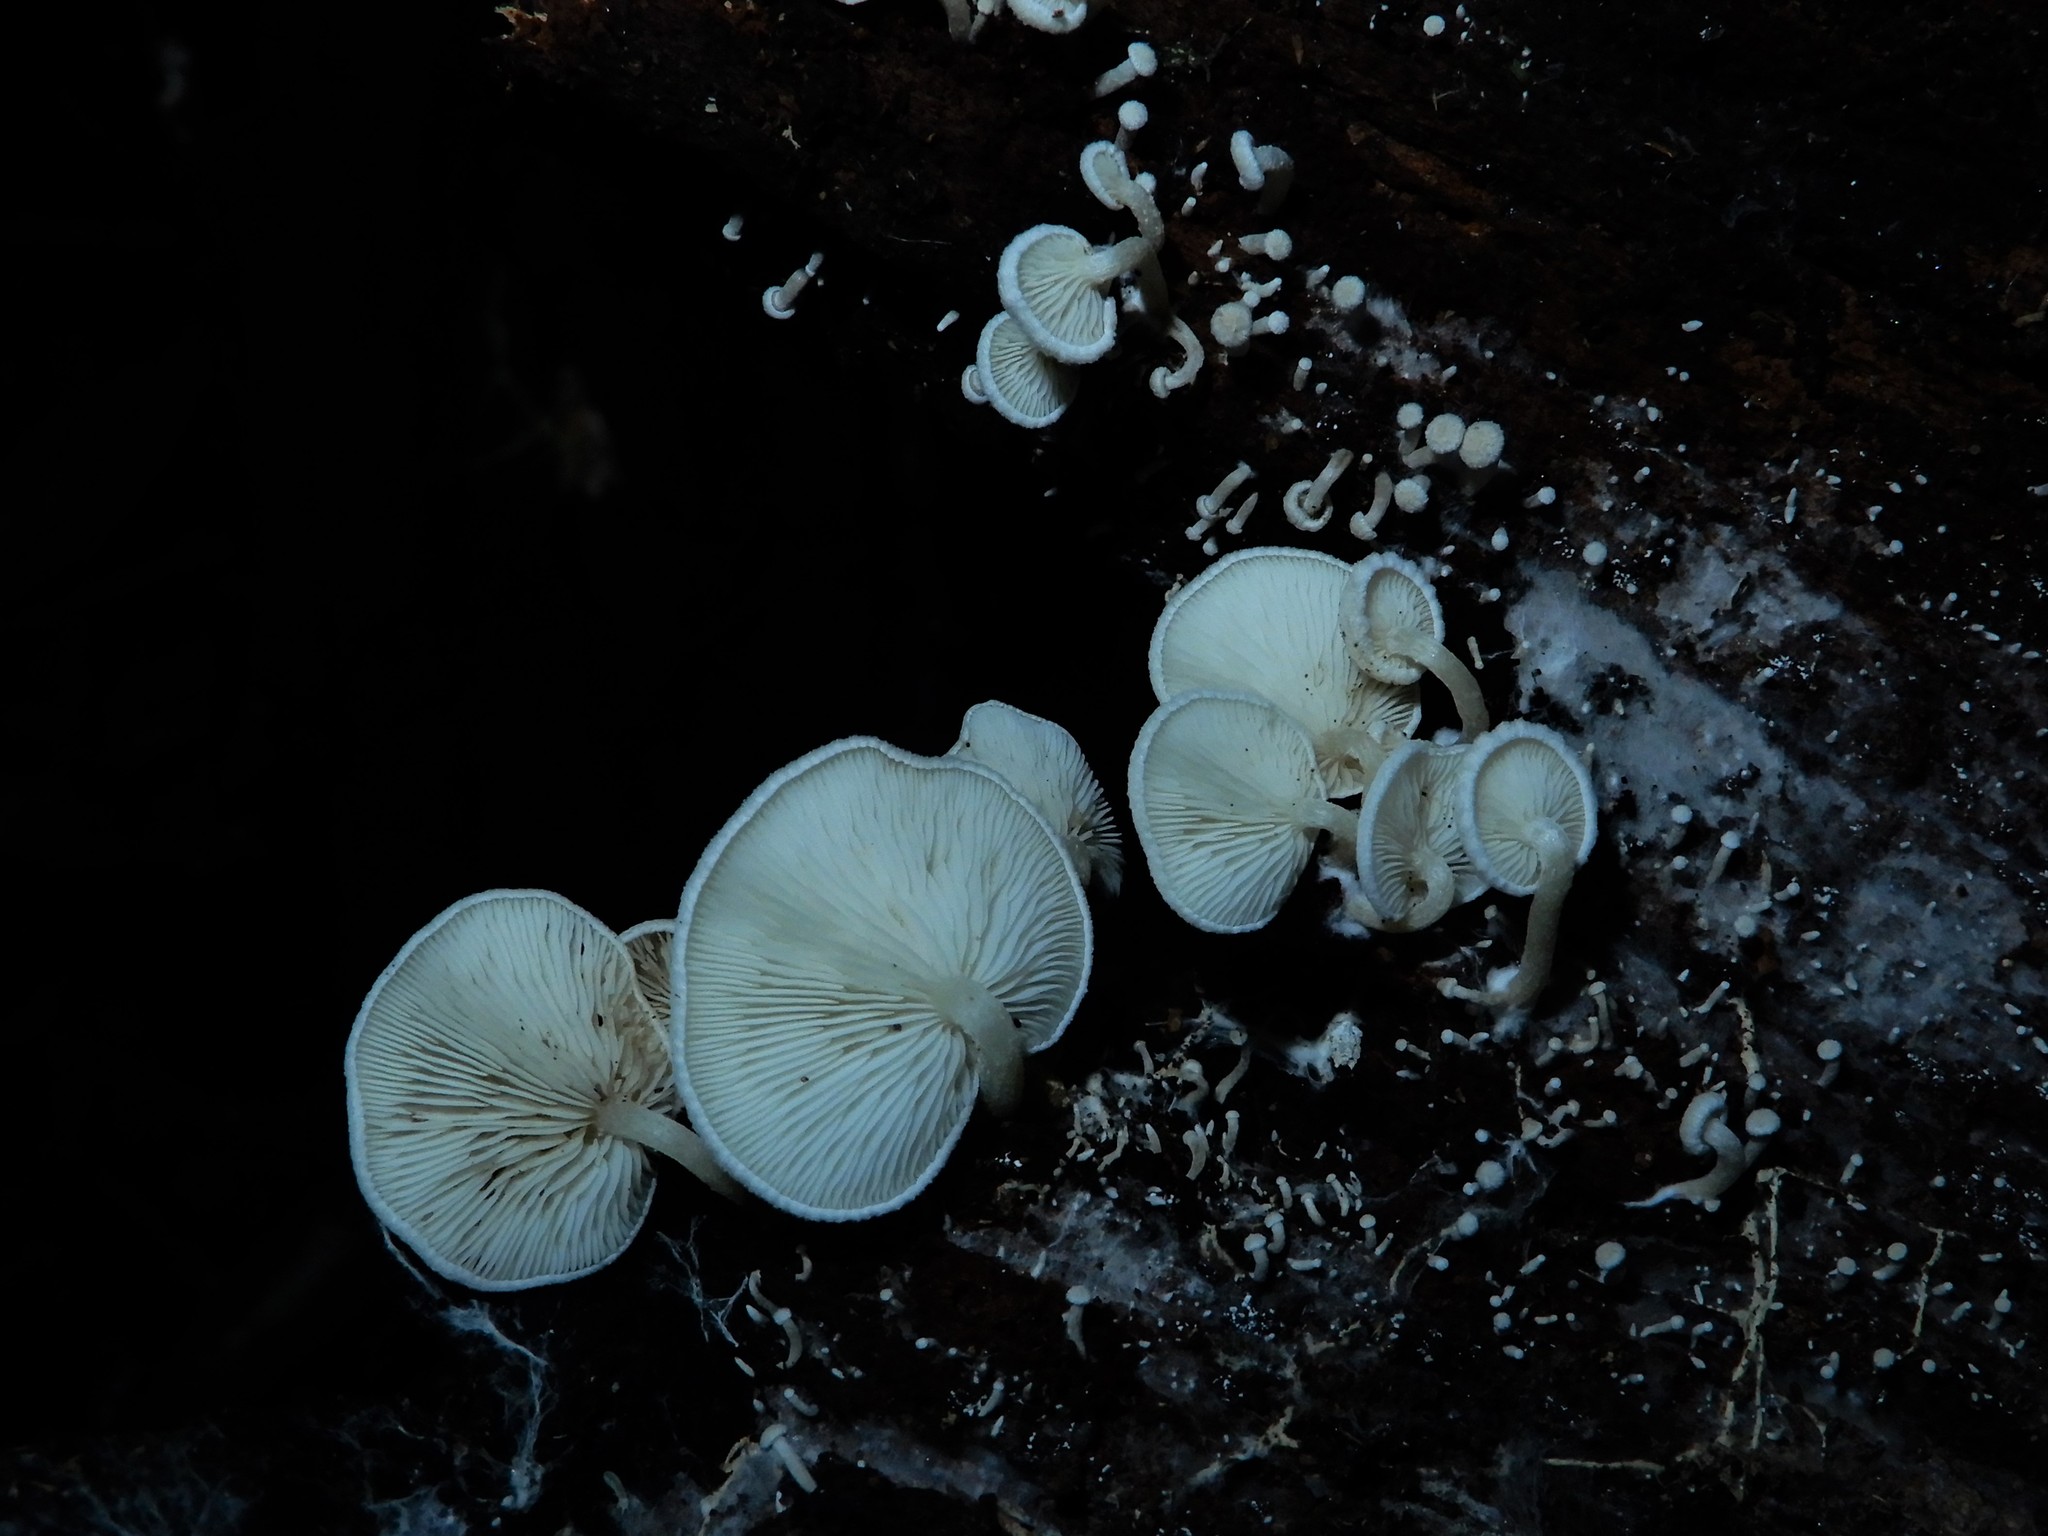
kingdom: Fungi
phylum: Basidiomycota
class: Agaricomycetes
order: Agaricales
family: Tricholomataceae
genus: Rhizocybe
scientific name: Rhizocybe albida
